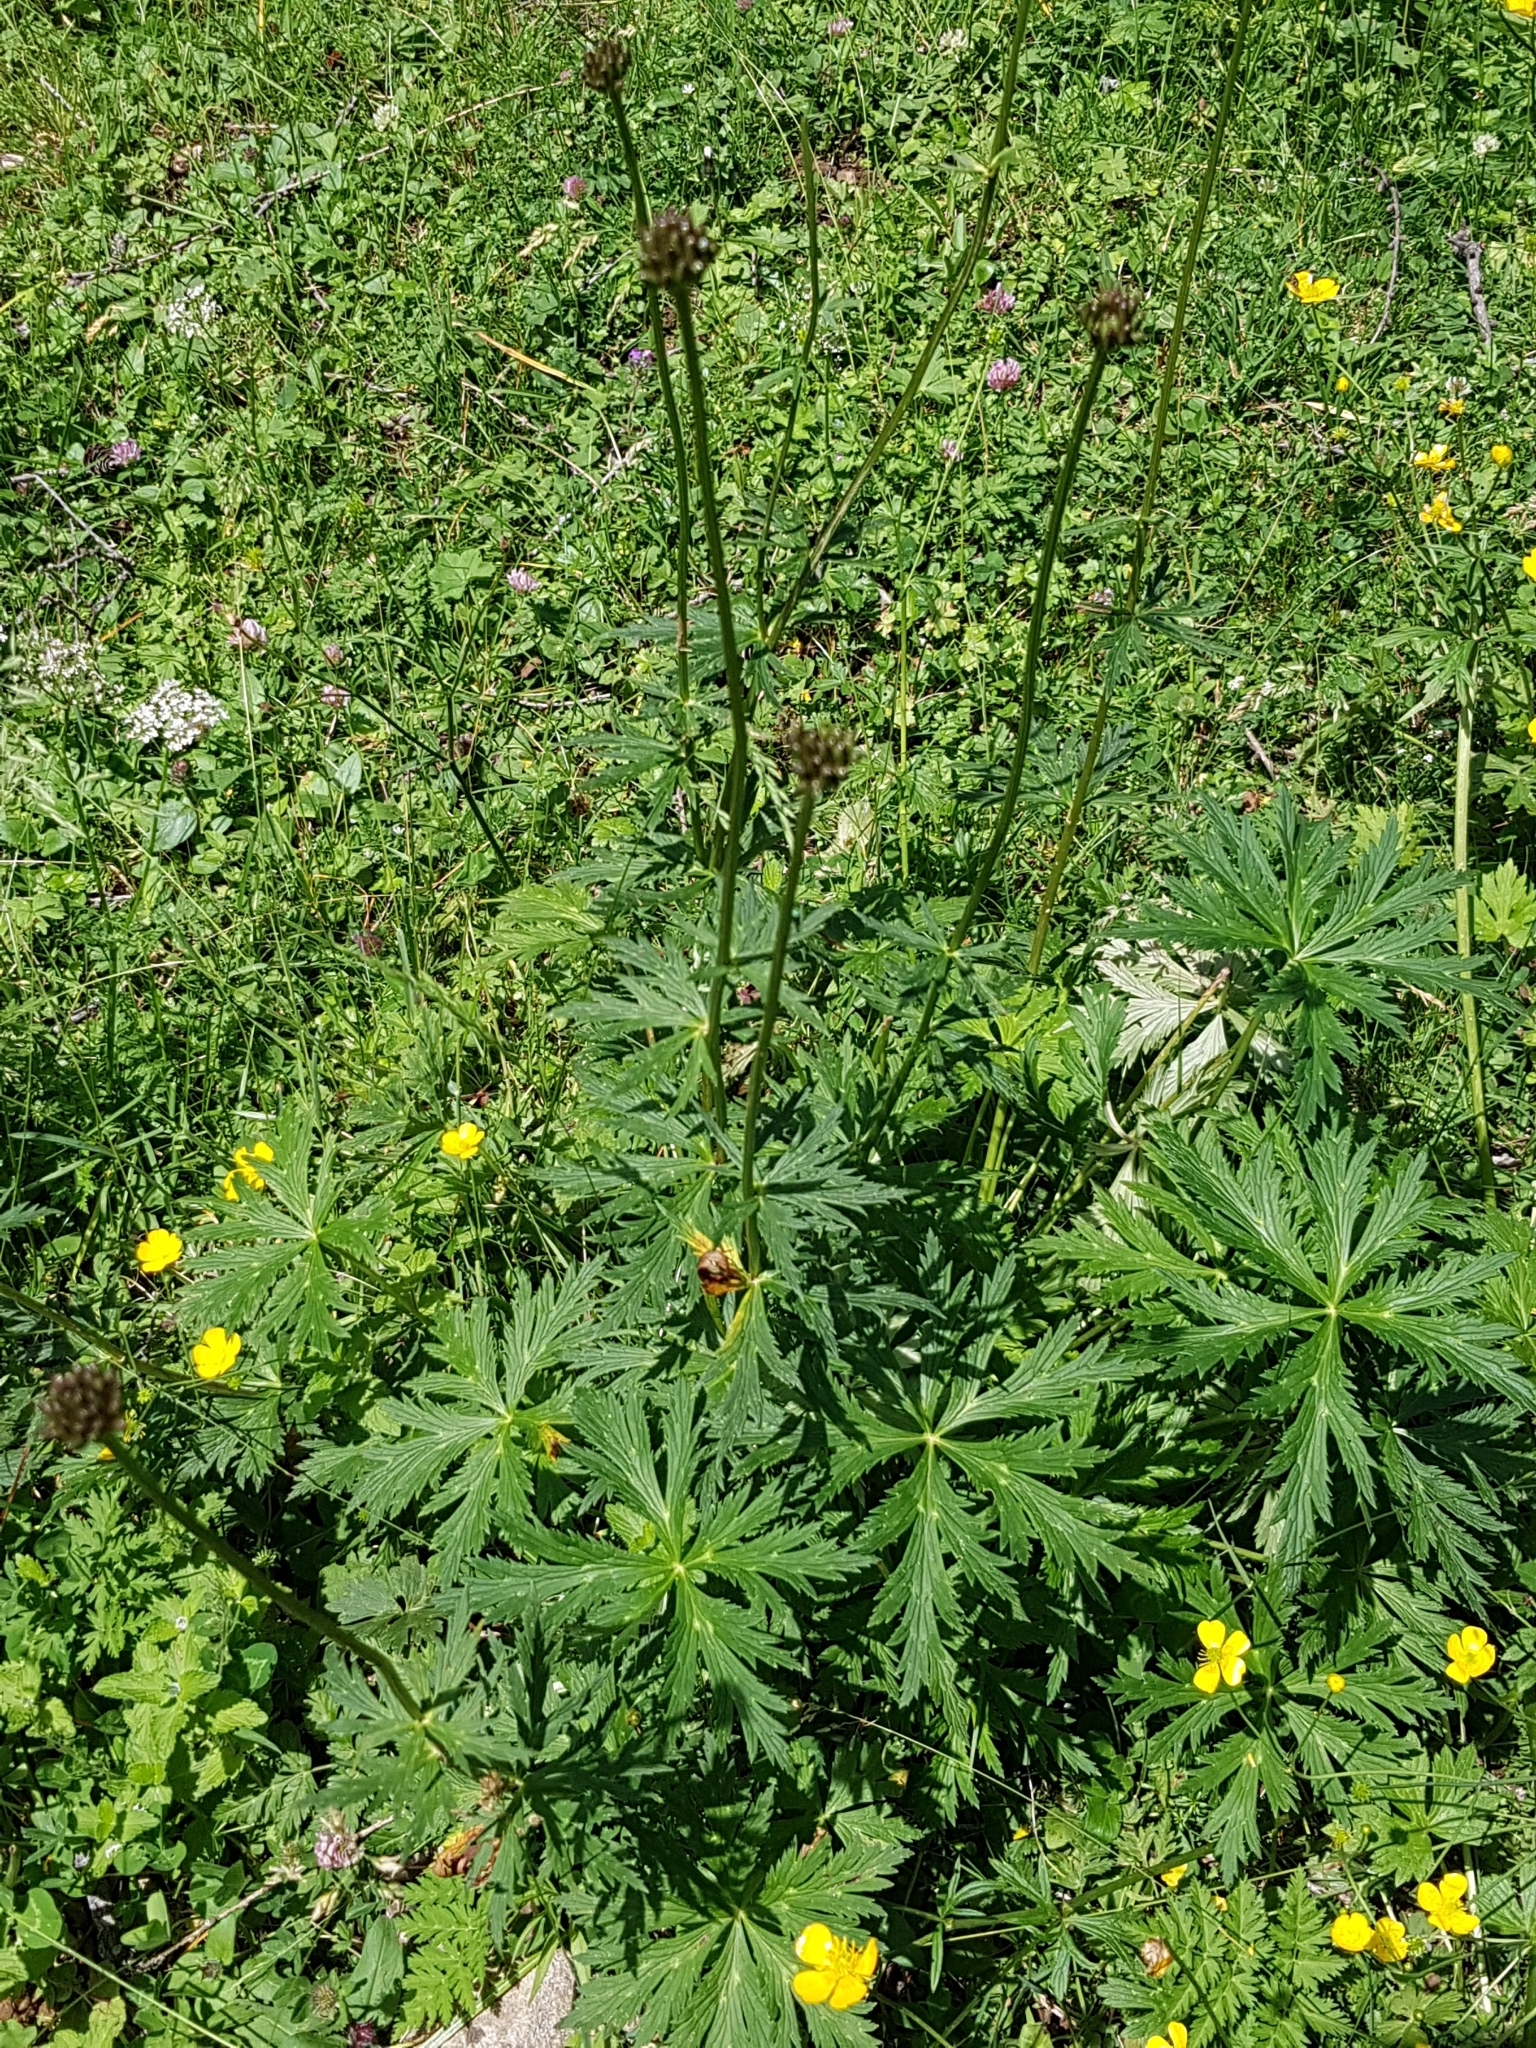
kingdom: Plantae
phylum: Tracheophyta
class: Magnoliopsida
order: Ranunculales
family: Ranunculaceae
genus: Trollius
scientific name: Trollius europaeus
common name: European globeflower
